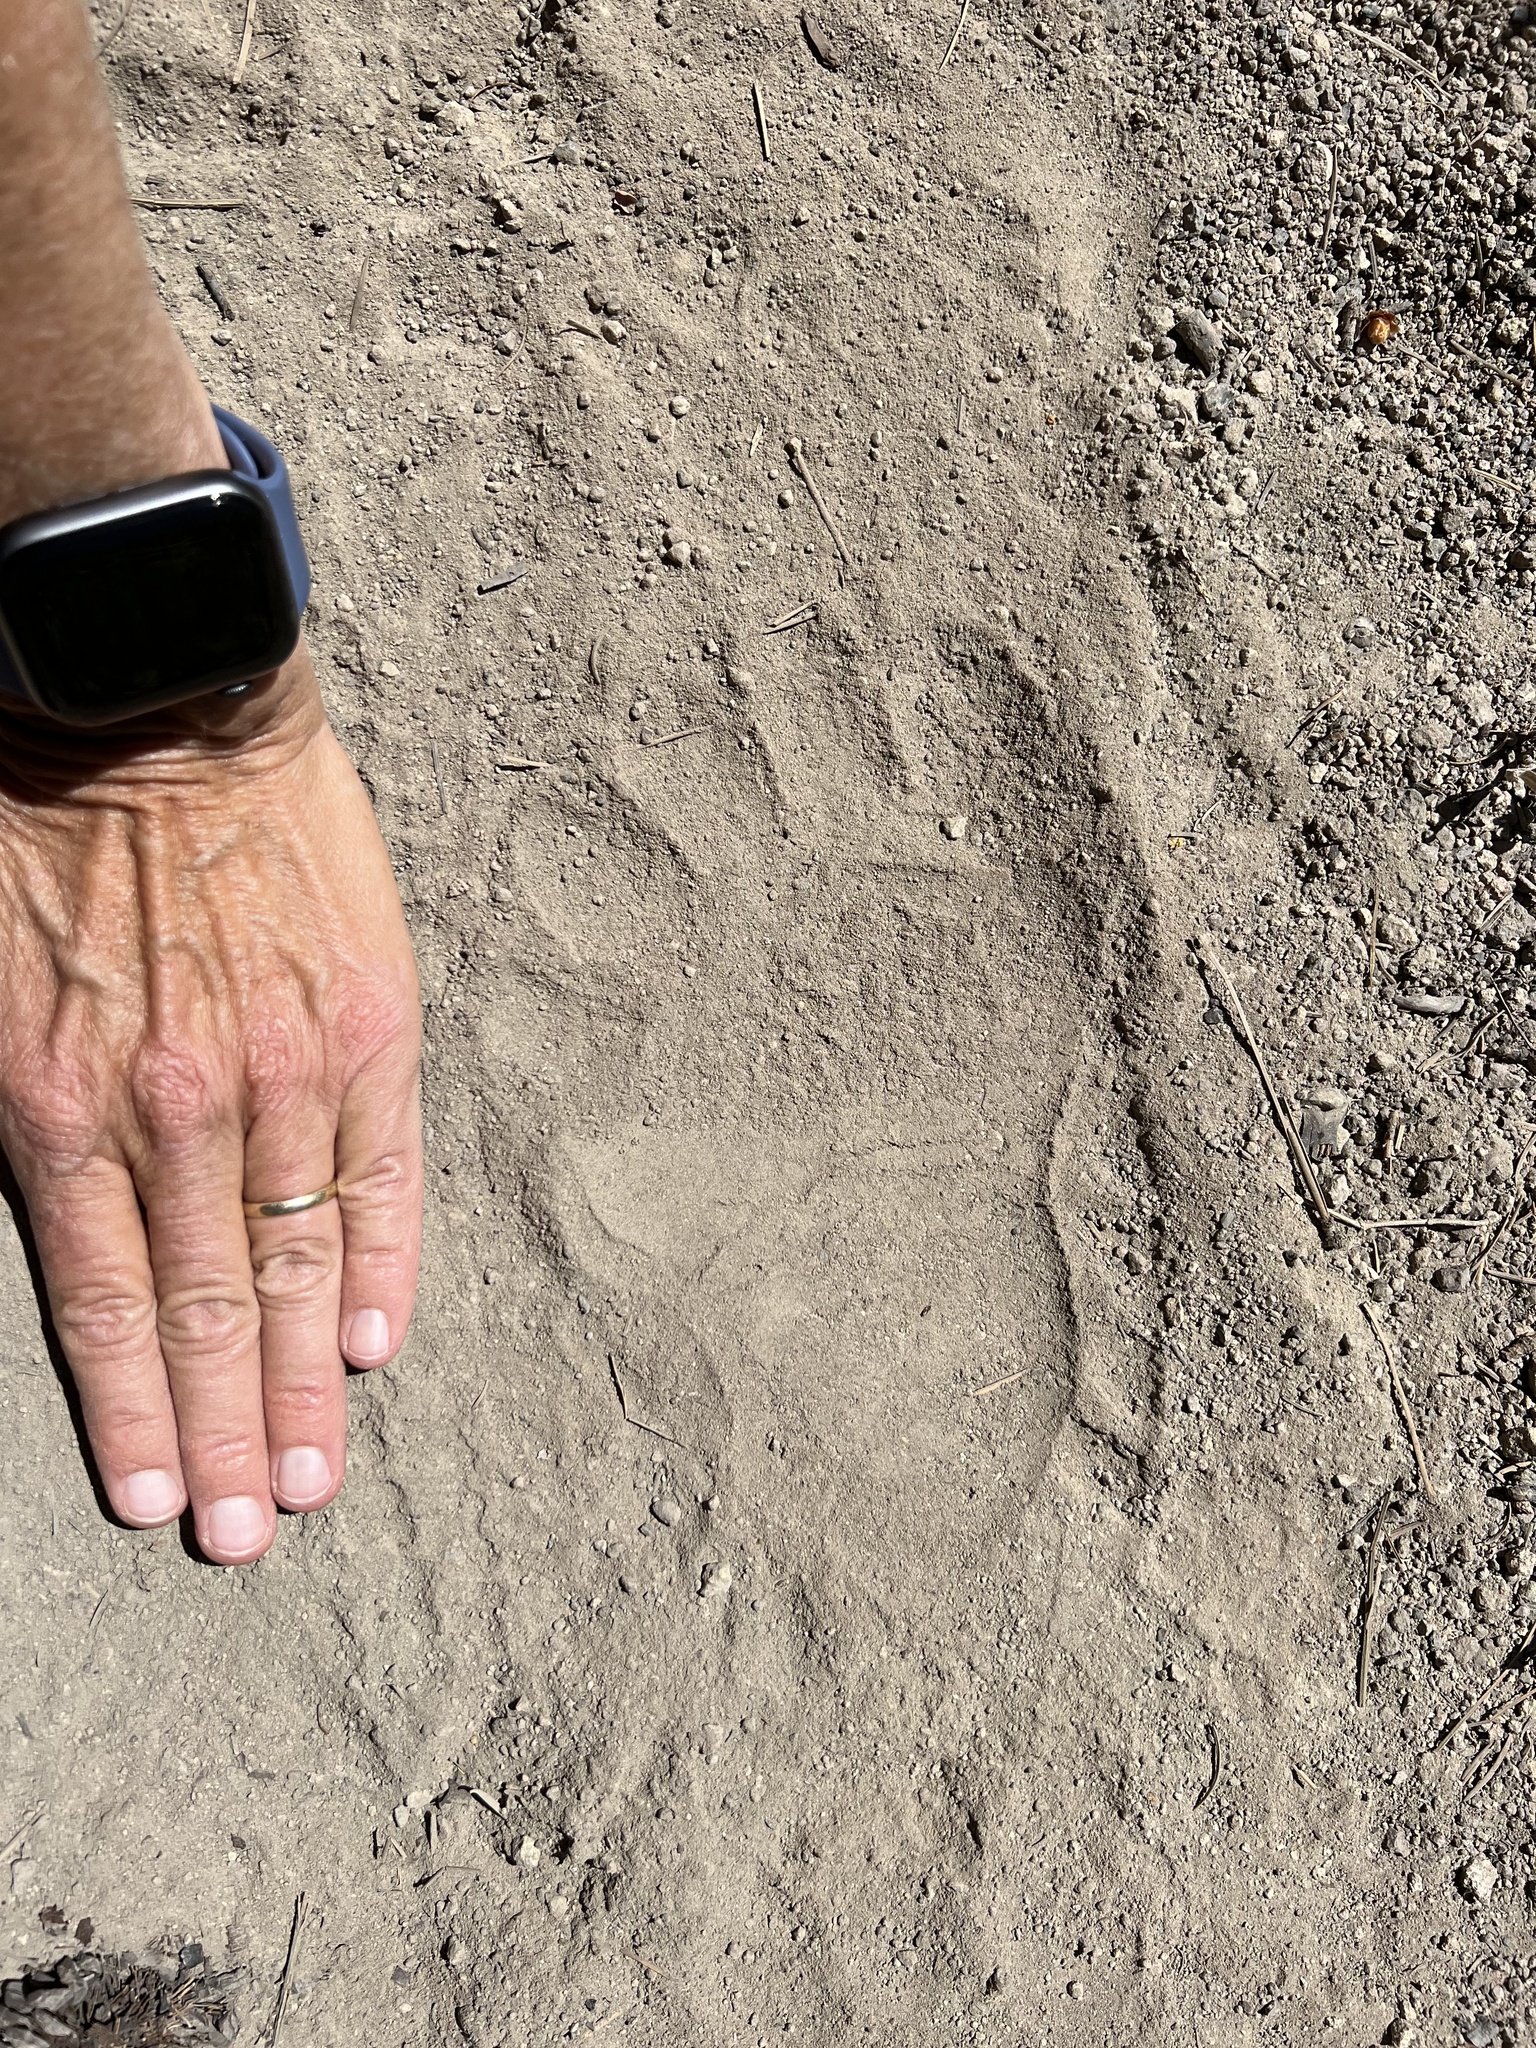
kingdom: Animalia
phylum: Chordata
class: Mammalia
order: Carnivora
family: Ursidae
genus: Ursus
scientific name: Ursus americanus
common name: American black bear
